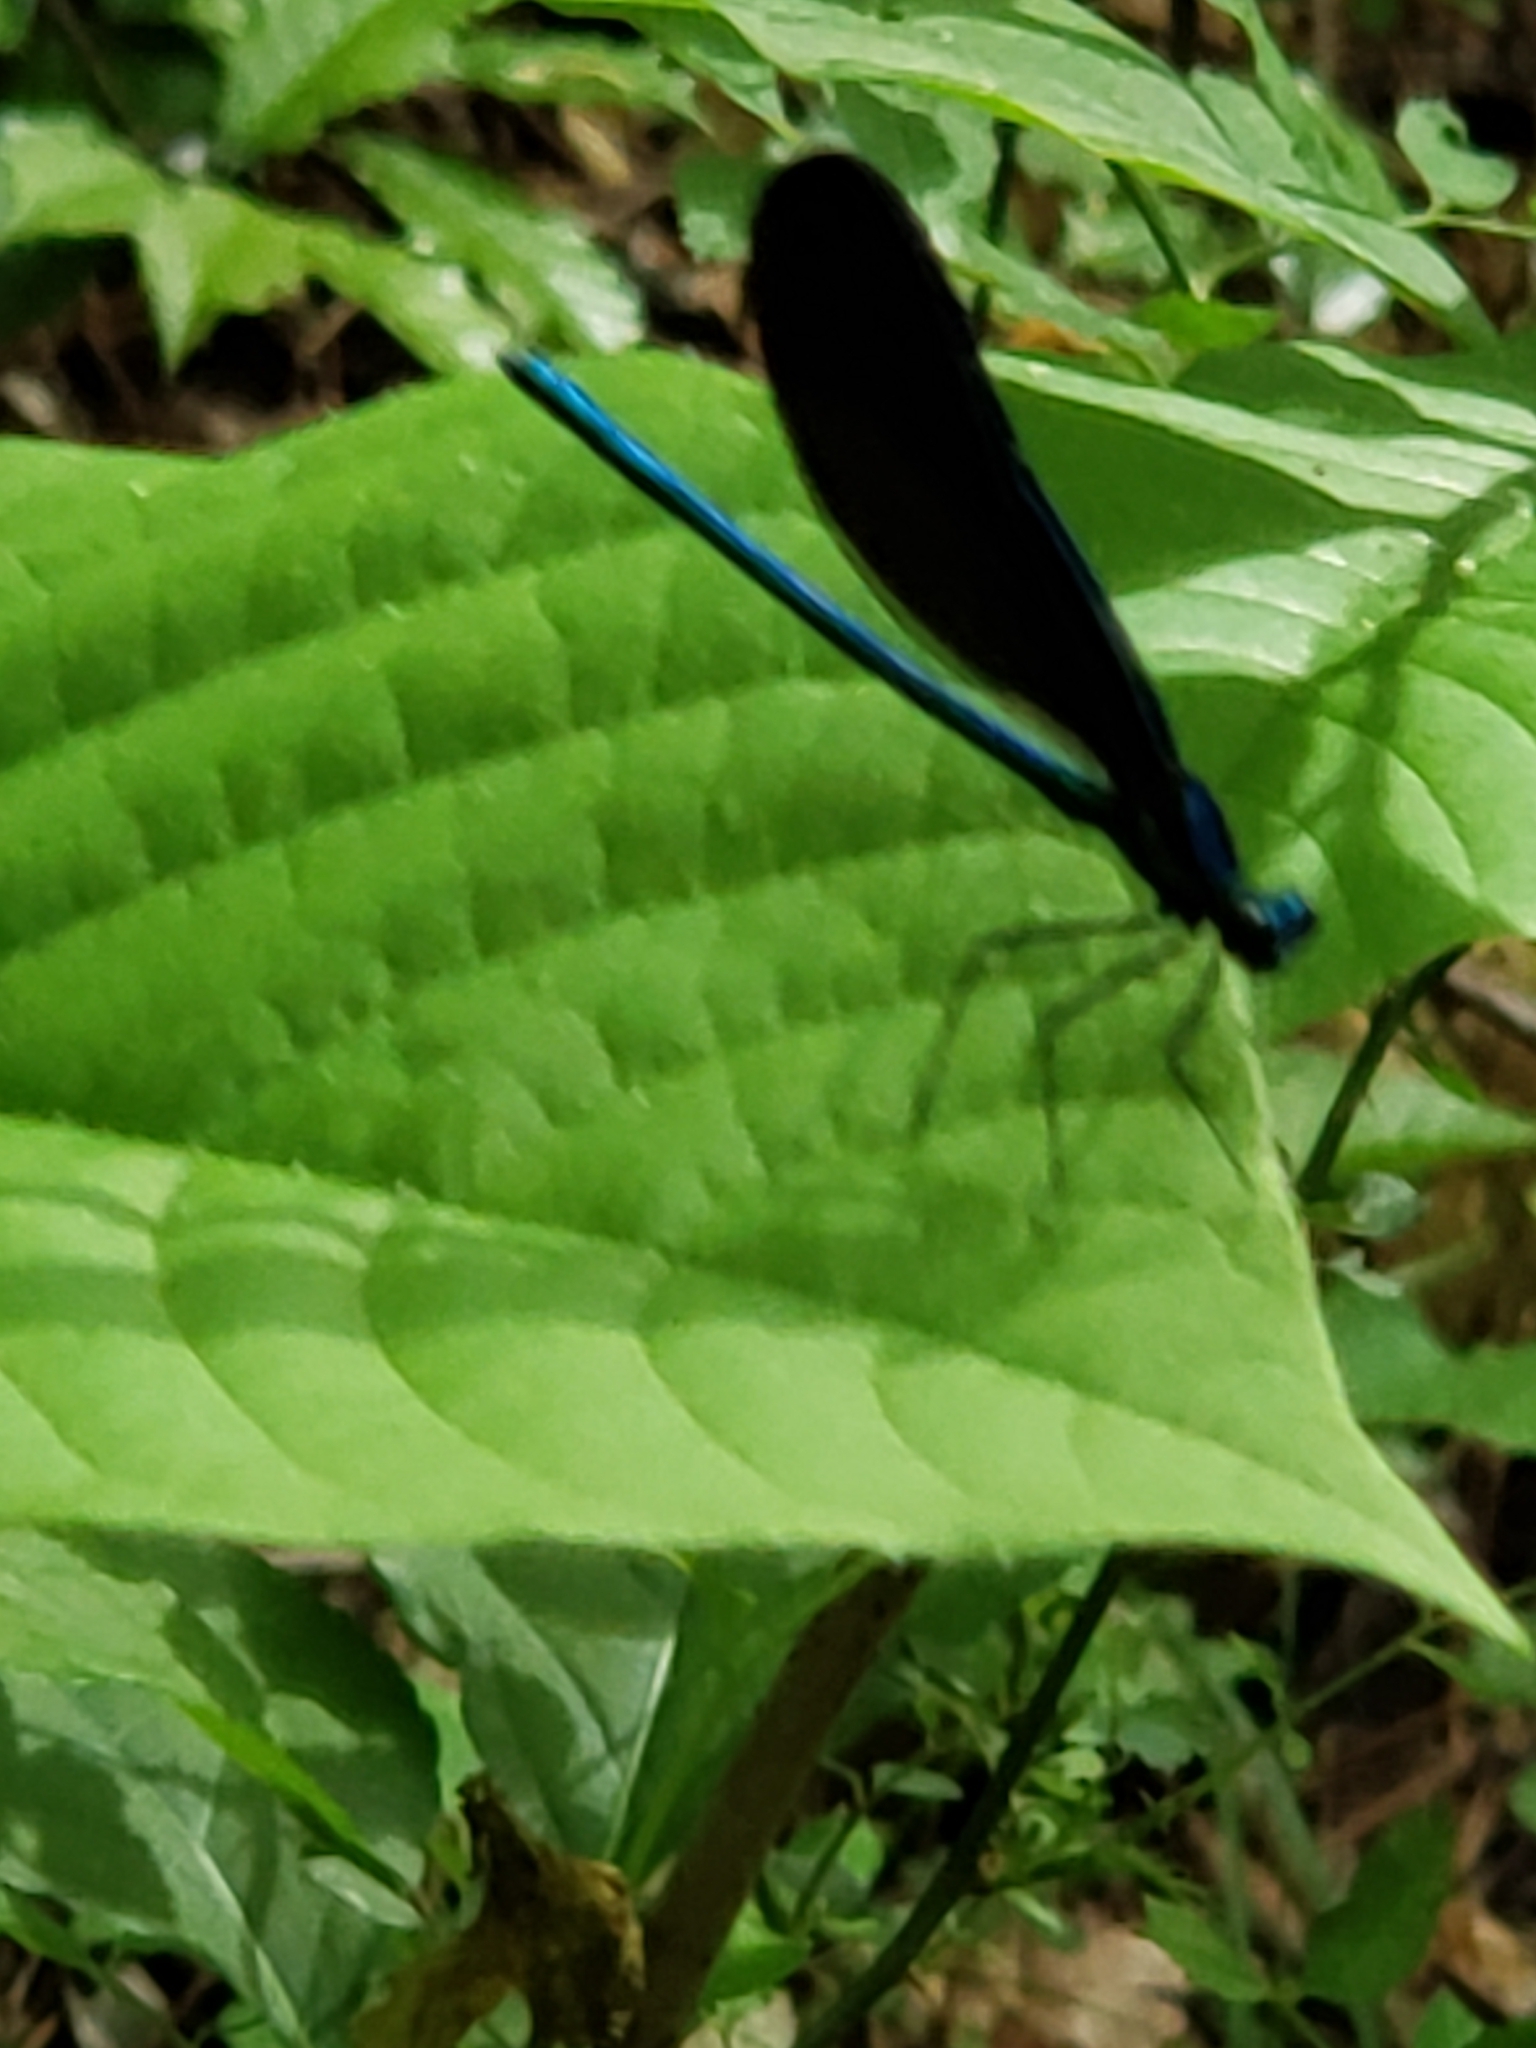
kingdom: Animalia
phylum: Arthropoda
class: Insecta
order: Odonata
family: Calopterygidae
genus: Calopteryx
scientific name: Calopteryx maculata
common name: Ebony jewelwing
